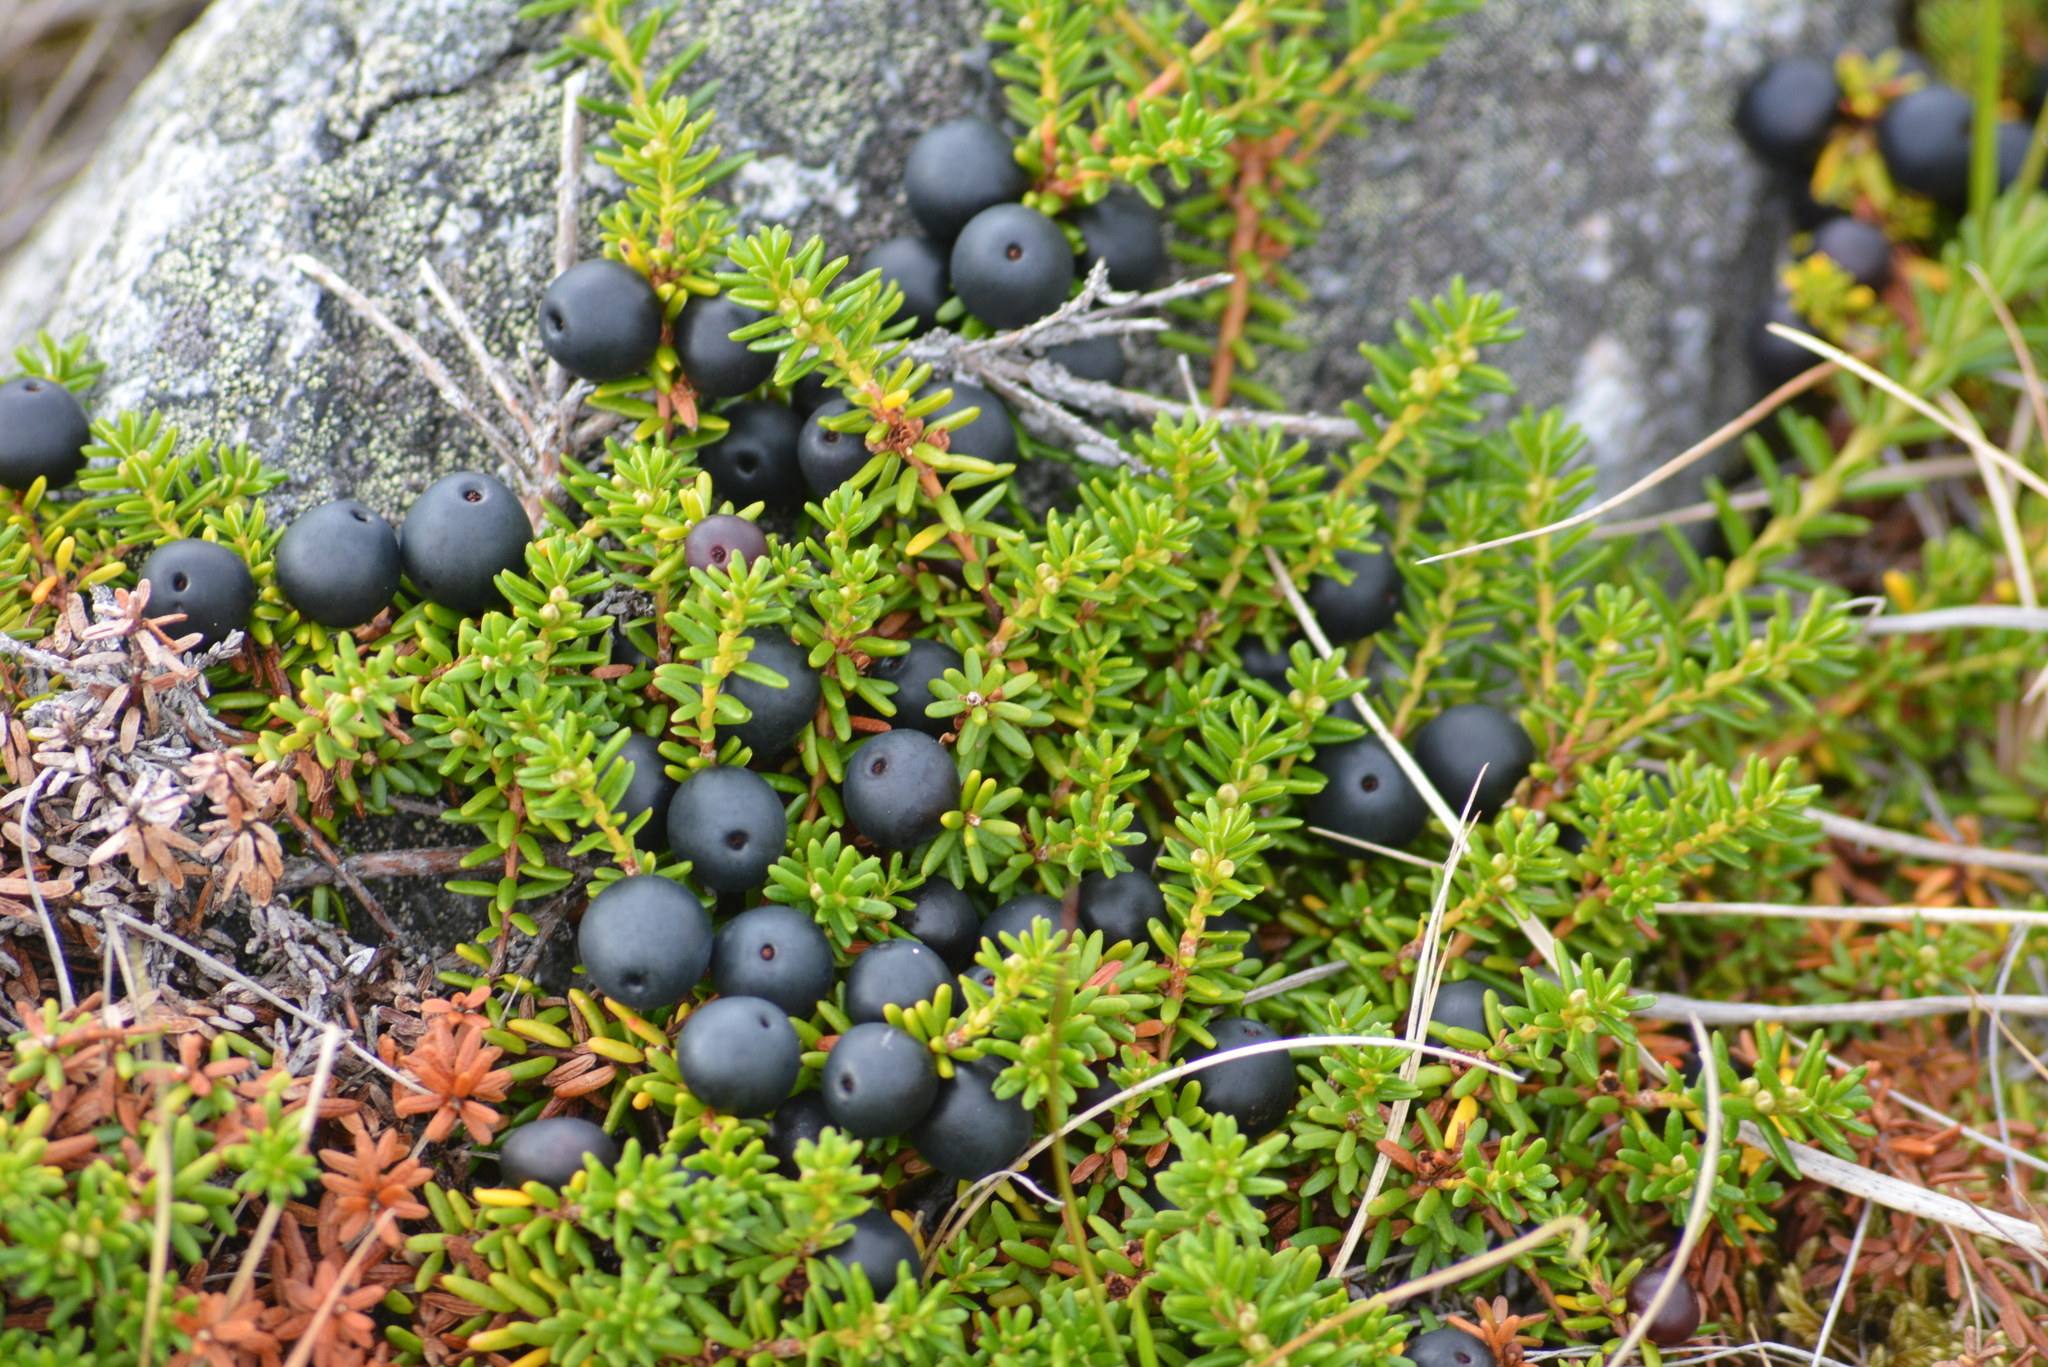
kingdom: Plantae
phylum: Tracheophyta
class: Magnoliopsida
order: Ericales
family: Ericaceae
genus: Empetrum
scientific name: Empetrum nigrum
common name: Black crowberry
